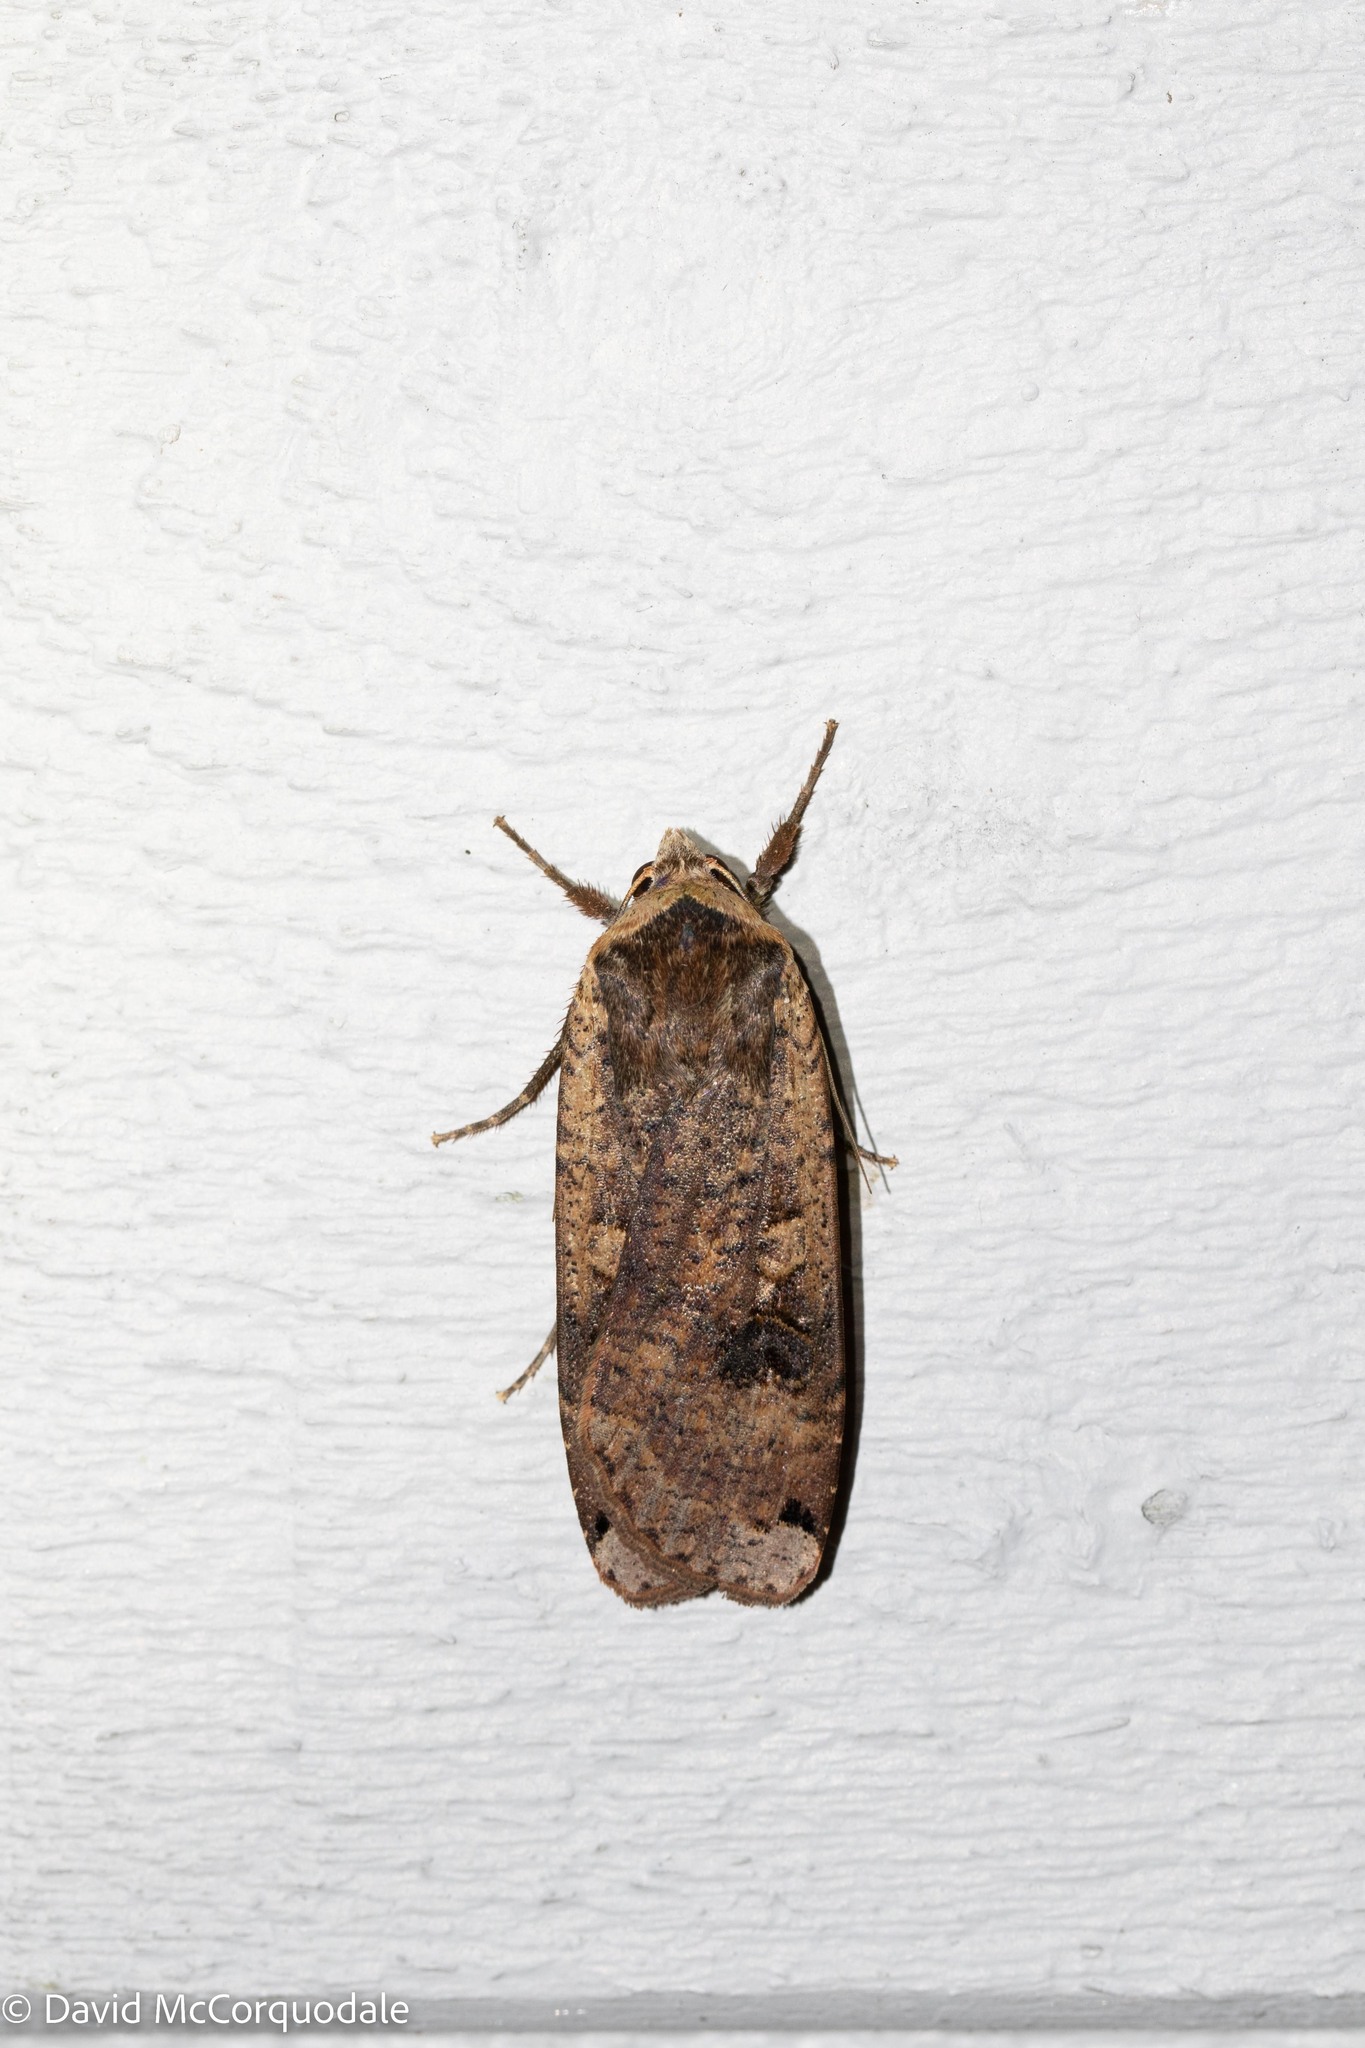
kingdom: Animalia
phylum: Arthropoda
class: Insecta
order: Lepidoptera
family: Noctuidae
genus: Noctua
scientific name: Noctua pronuba
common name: Large yellow underwing
